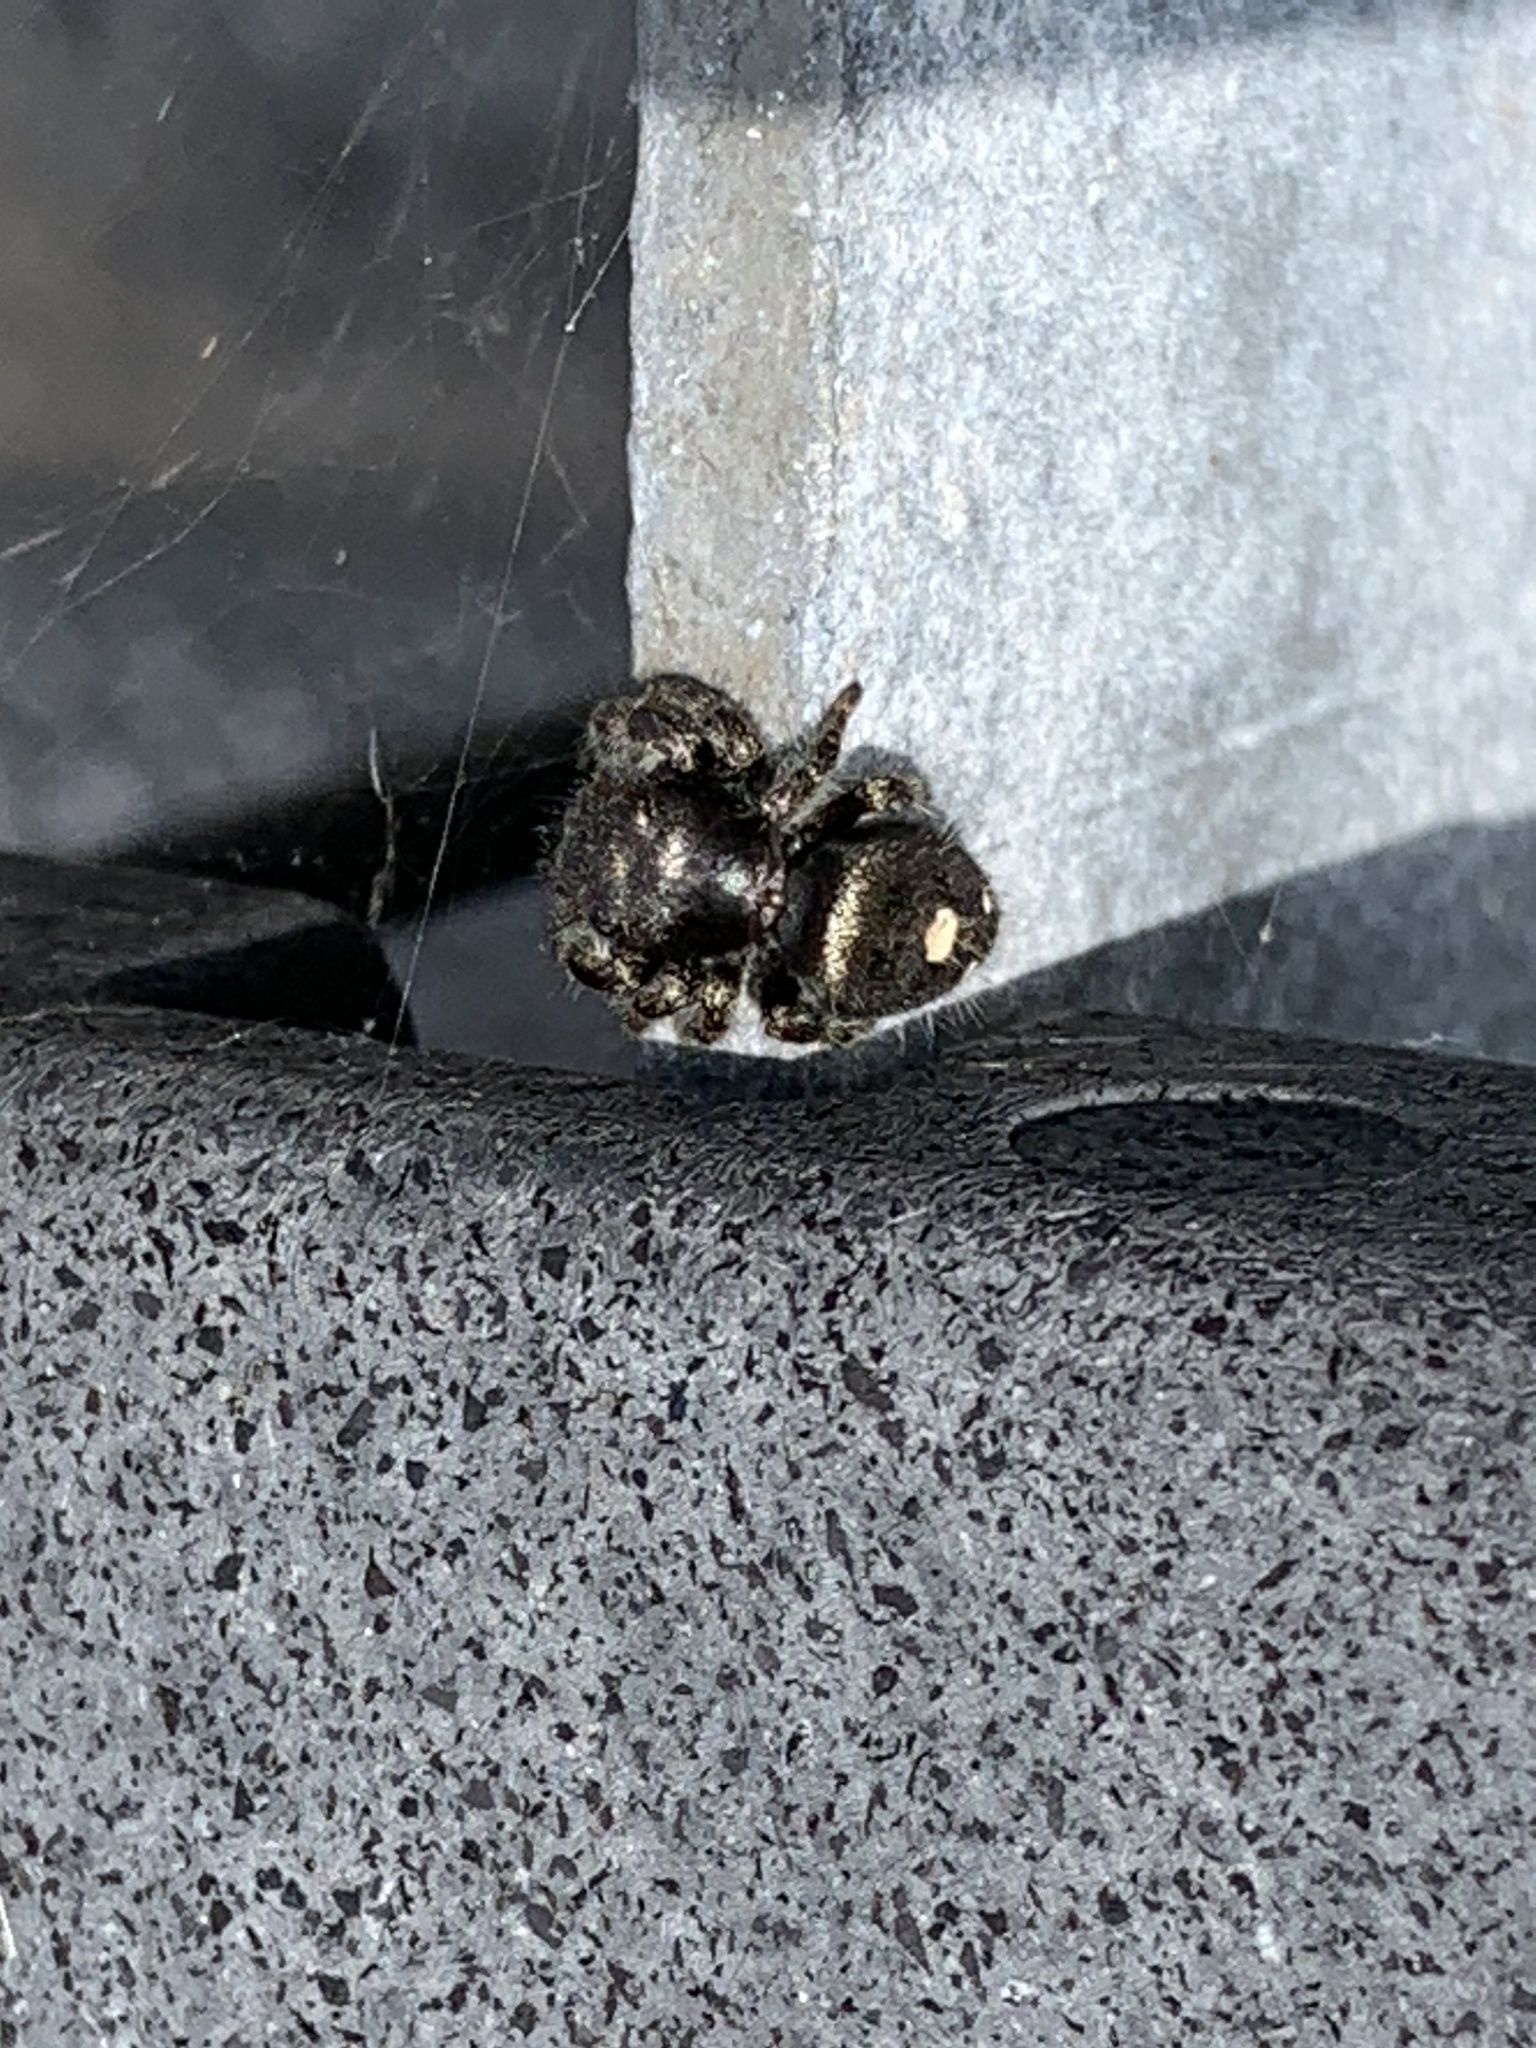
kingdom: Animalia
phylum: Arthropoda
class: Arachnida
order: Araneae
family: Salticidae
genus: Phidippus
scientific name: Phidippus audax
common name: Bold jumper
